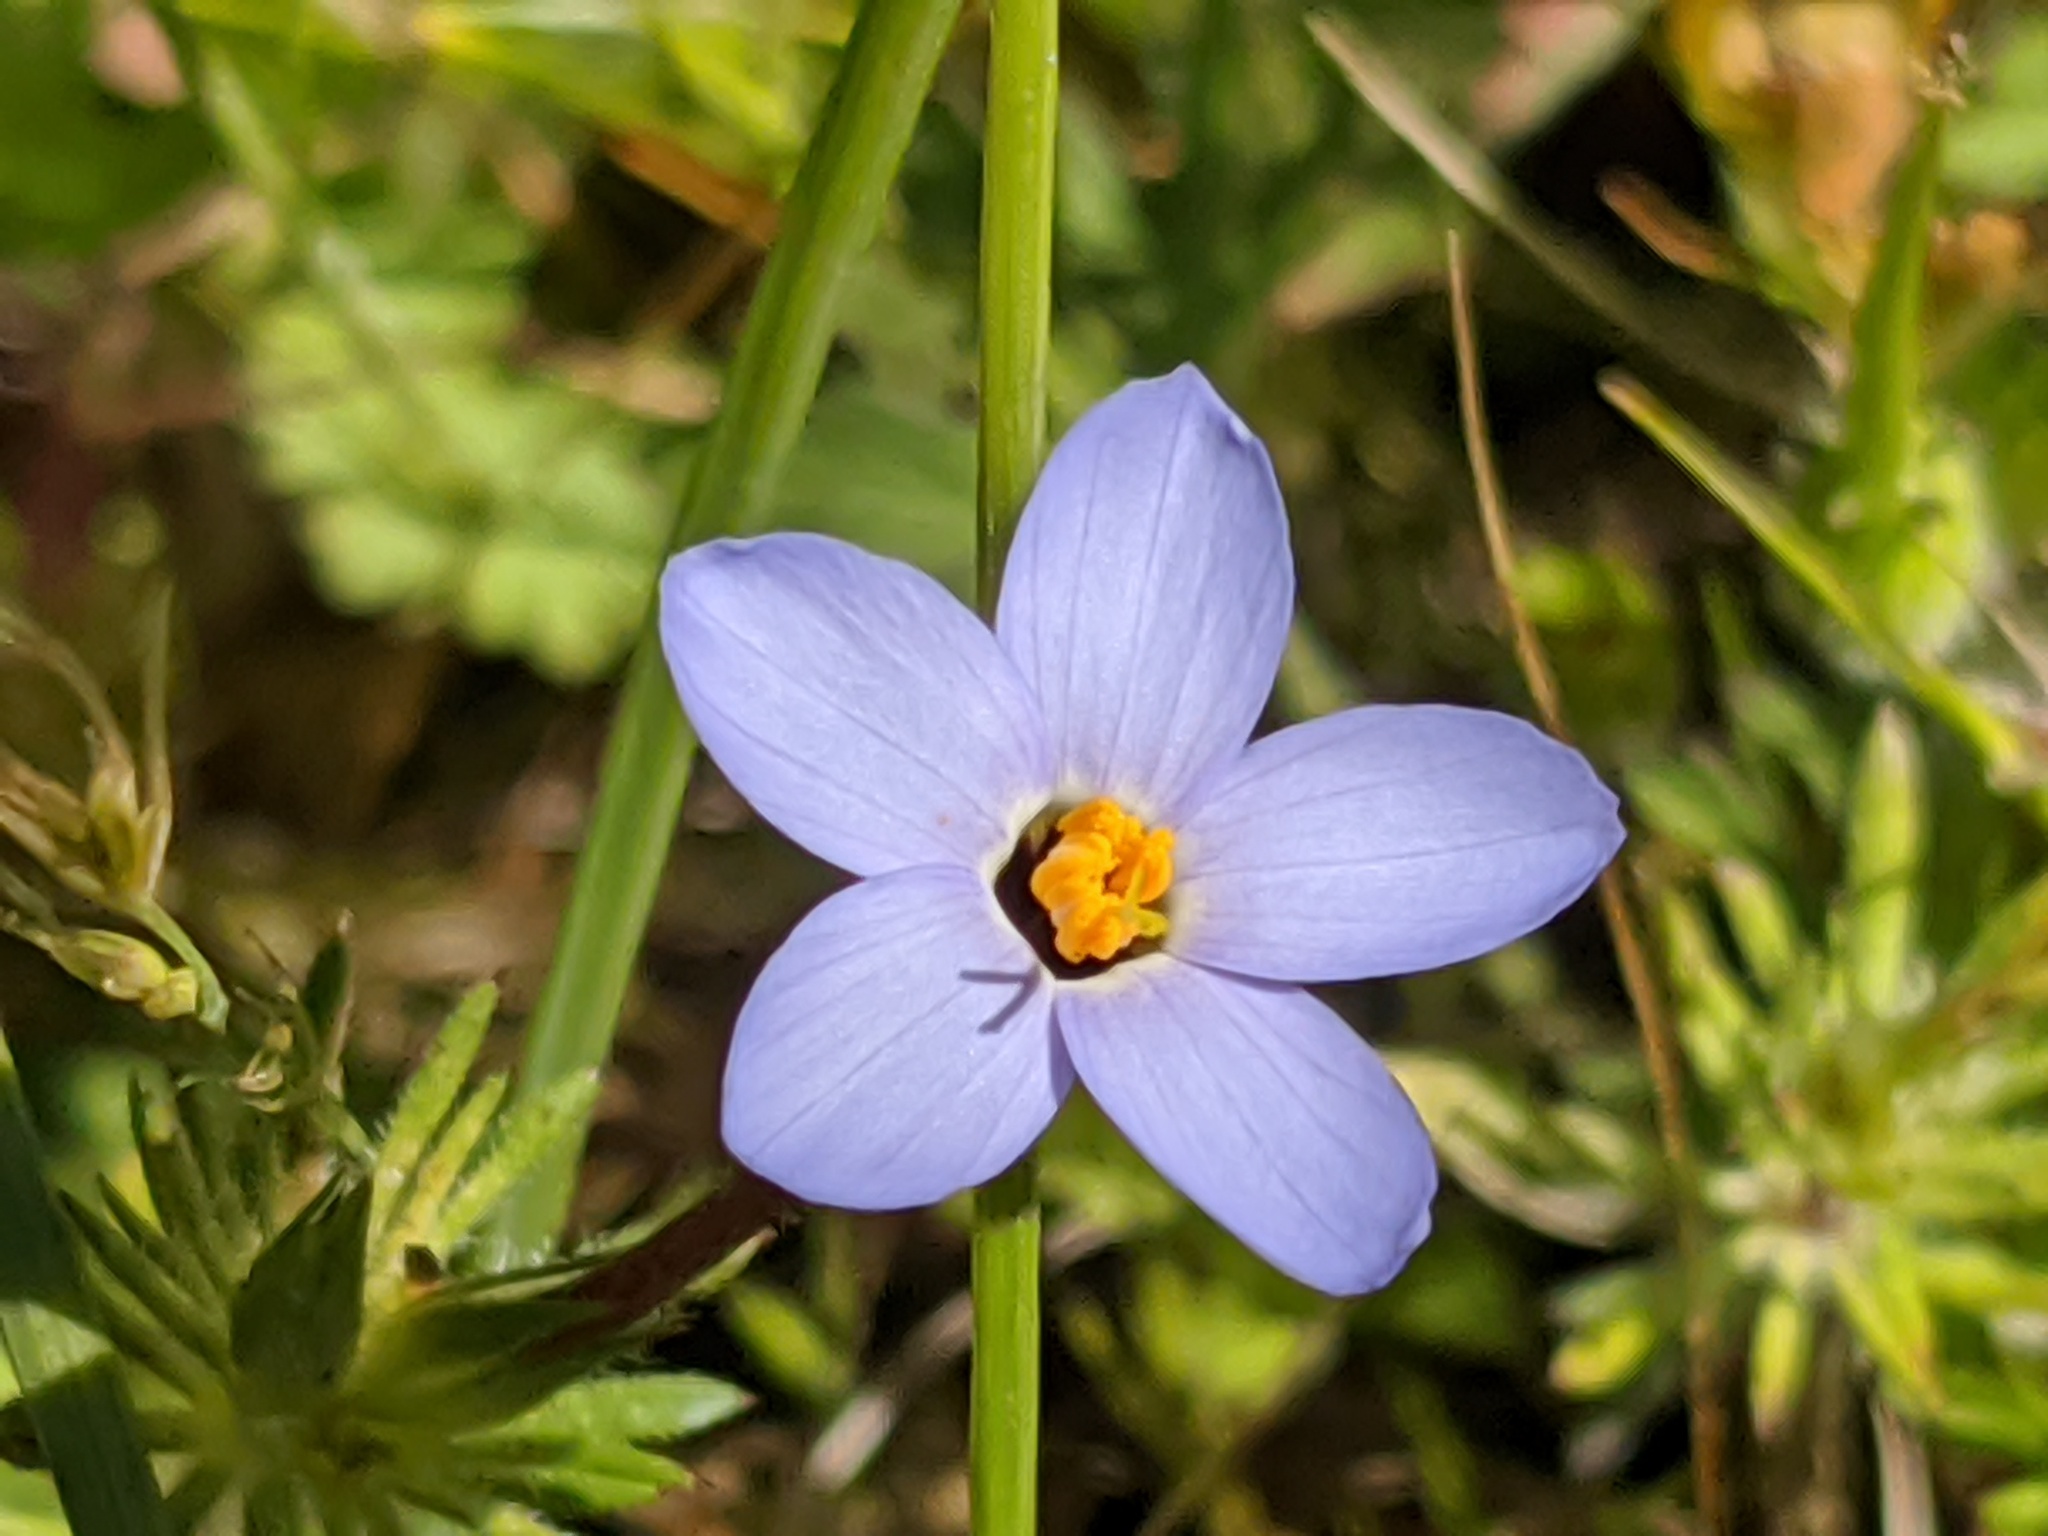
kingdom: Plantae
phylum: Tracheophyta
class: Magnoliopsida
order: Ericales
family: Polemoniaceae
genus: Leptosiphon
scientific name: Leptosiphon androsaceus
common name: False babystars
